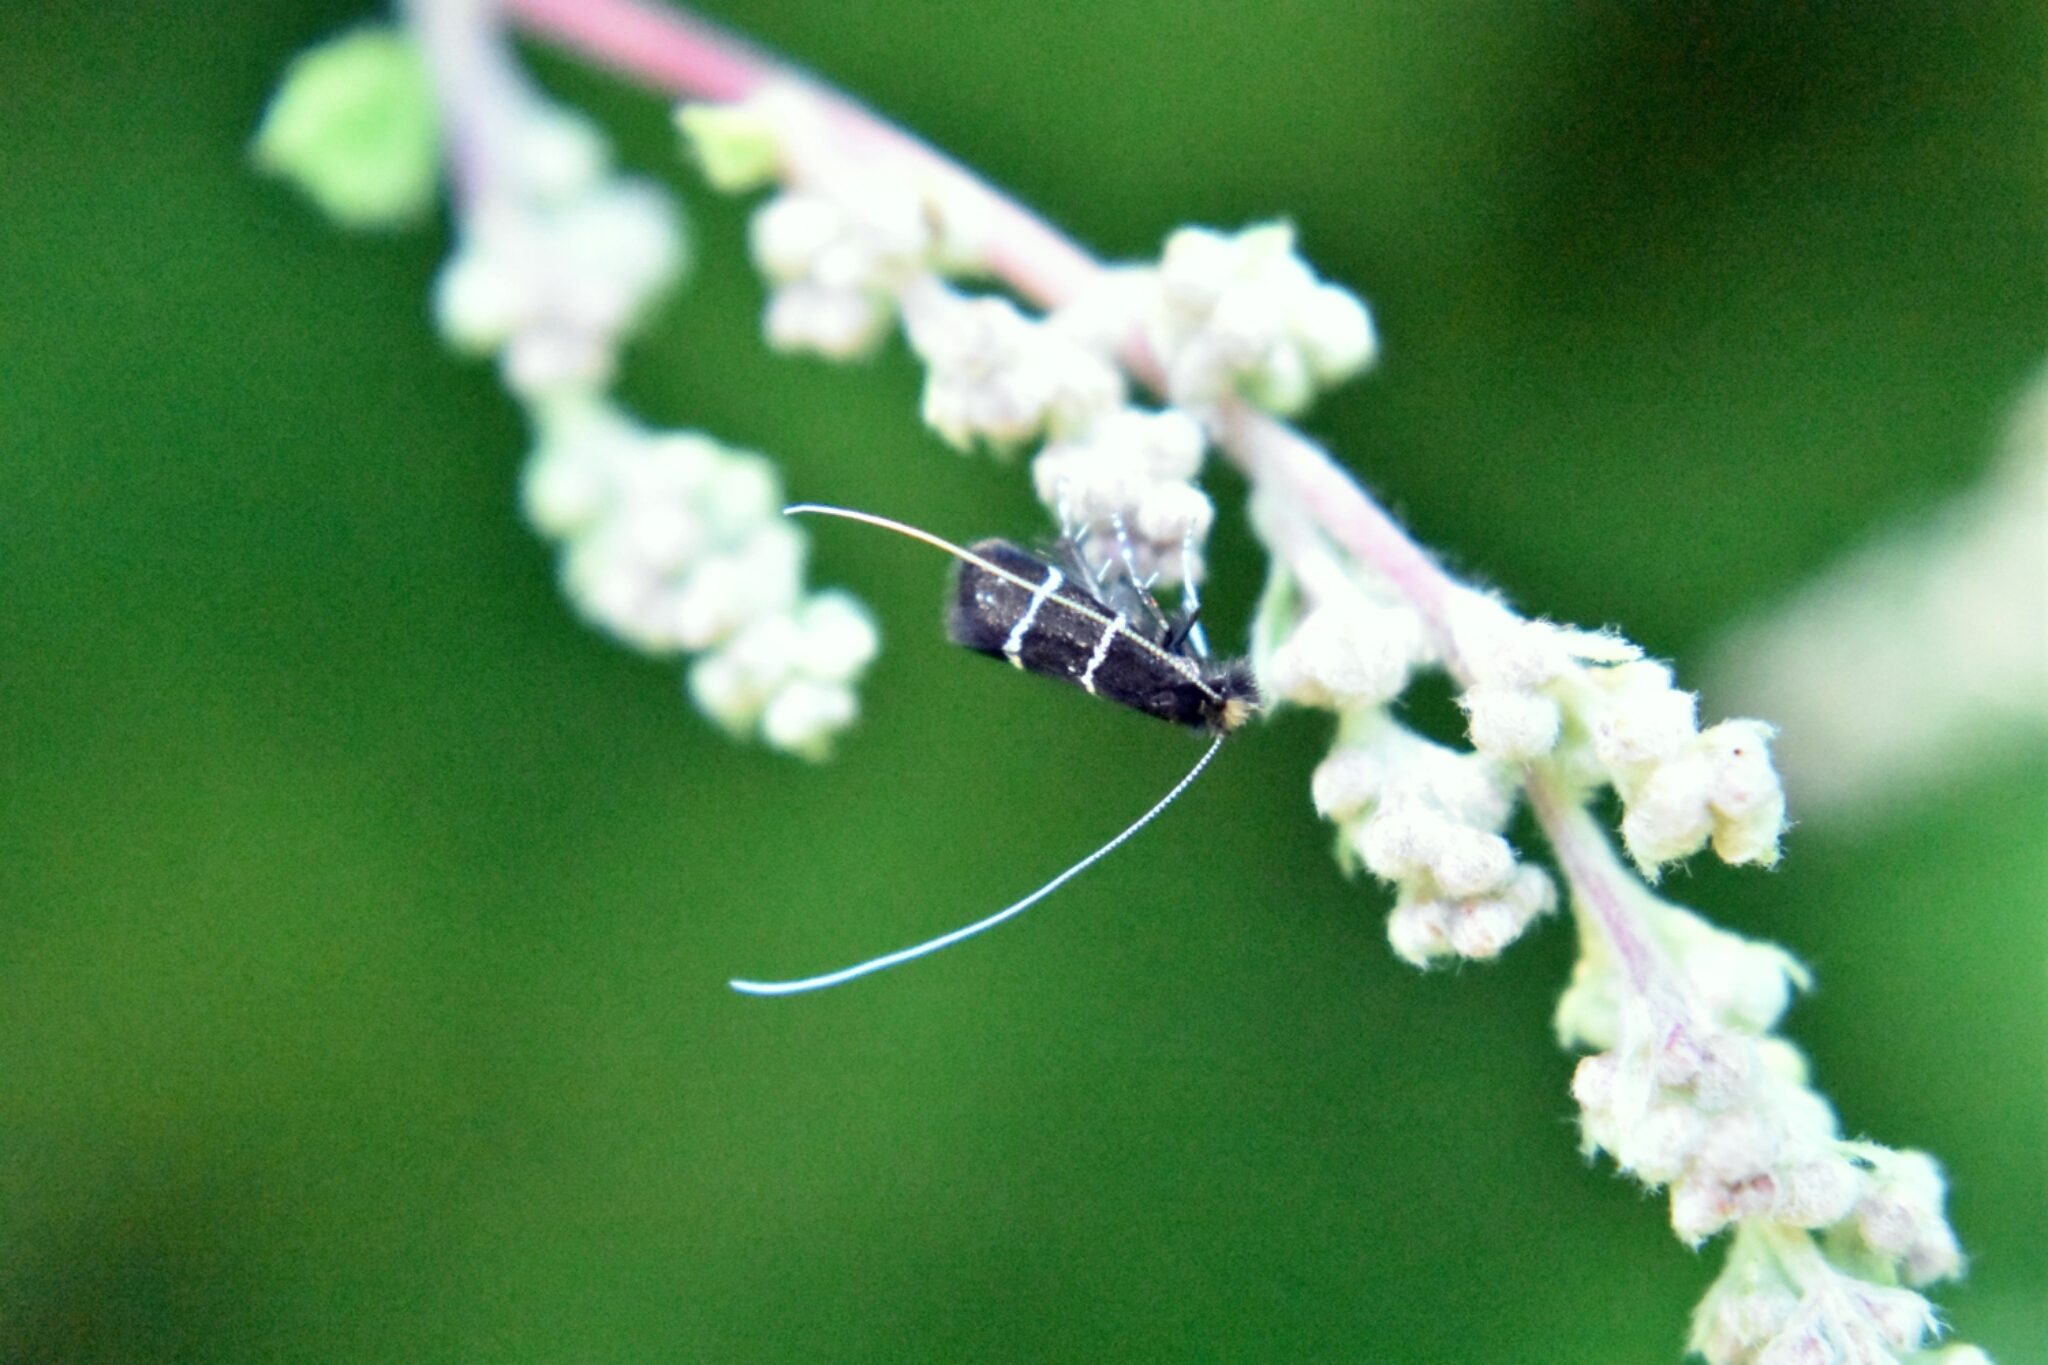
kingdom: Animalia
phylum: Arthropoda
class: Insecta
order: Lepidoptera
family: Adelidae
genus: Adela
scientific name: Adela septentrionella
